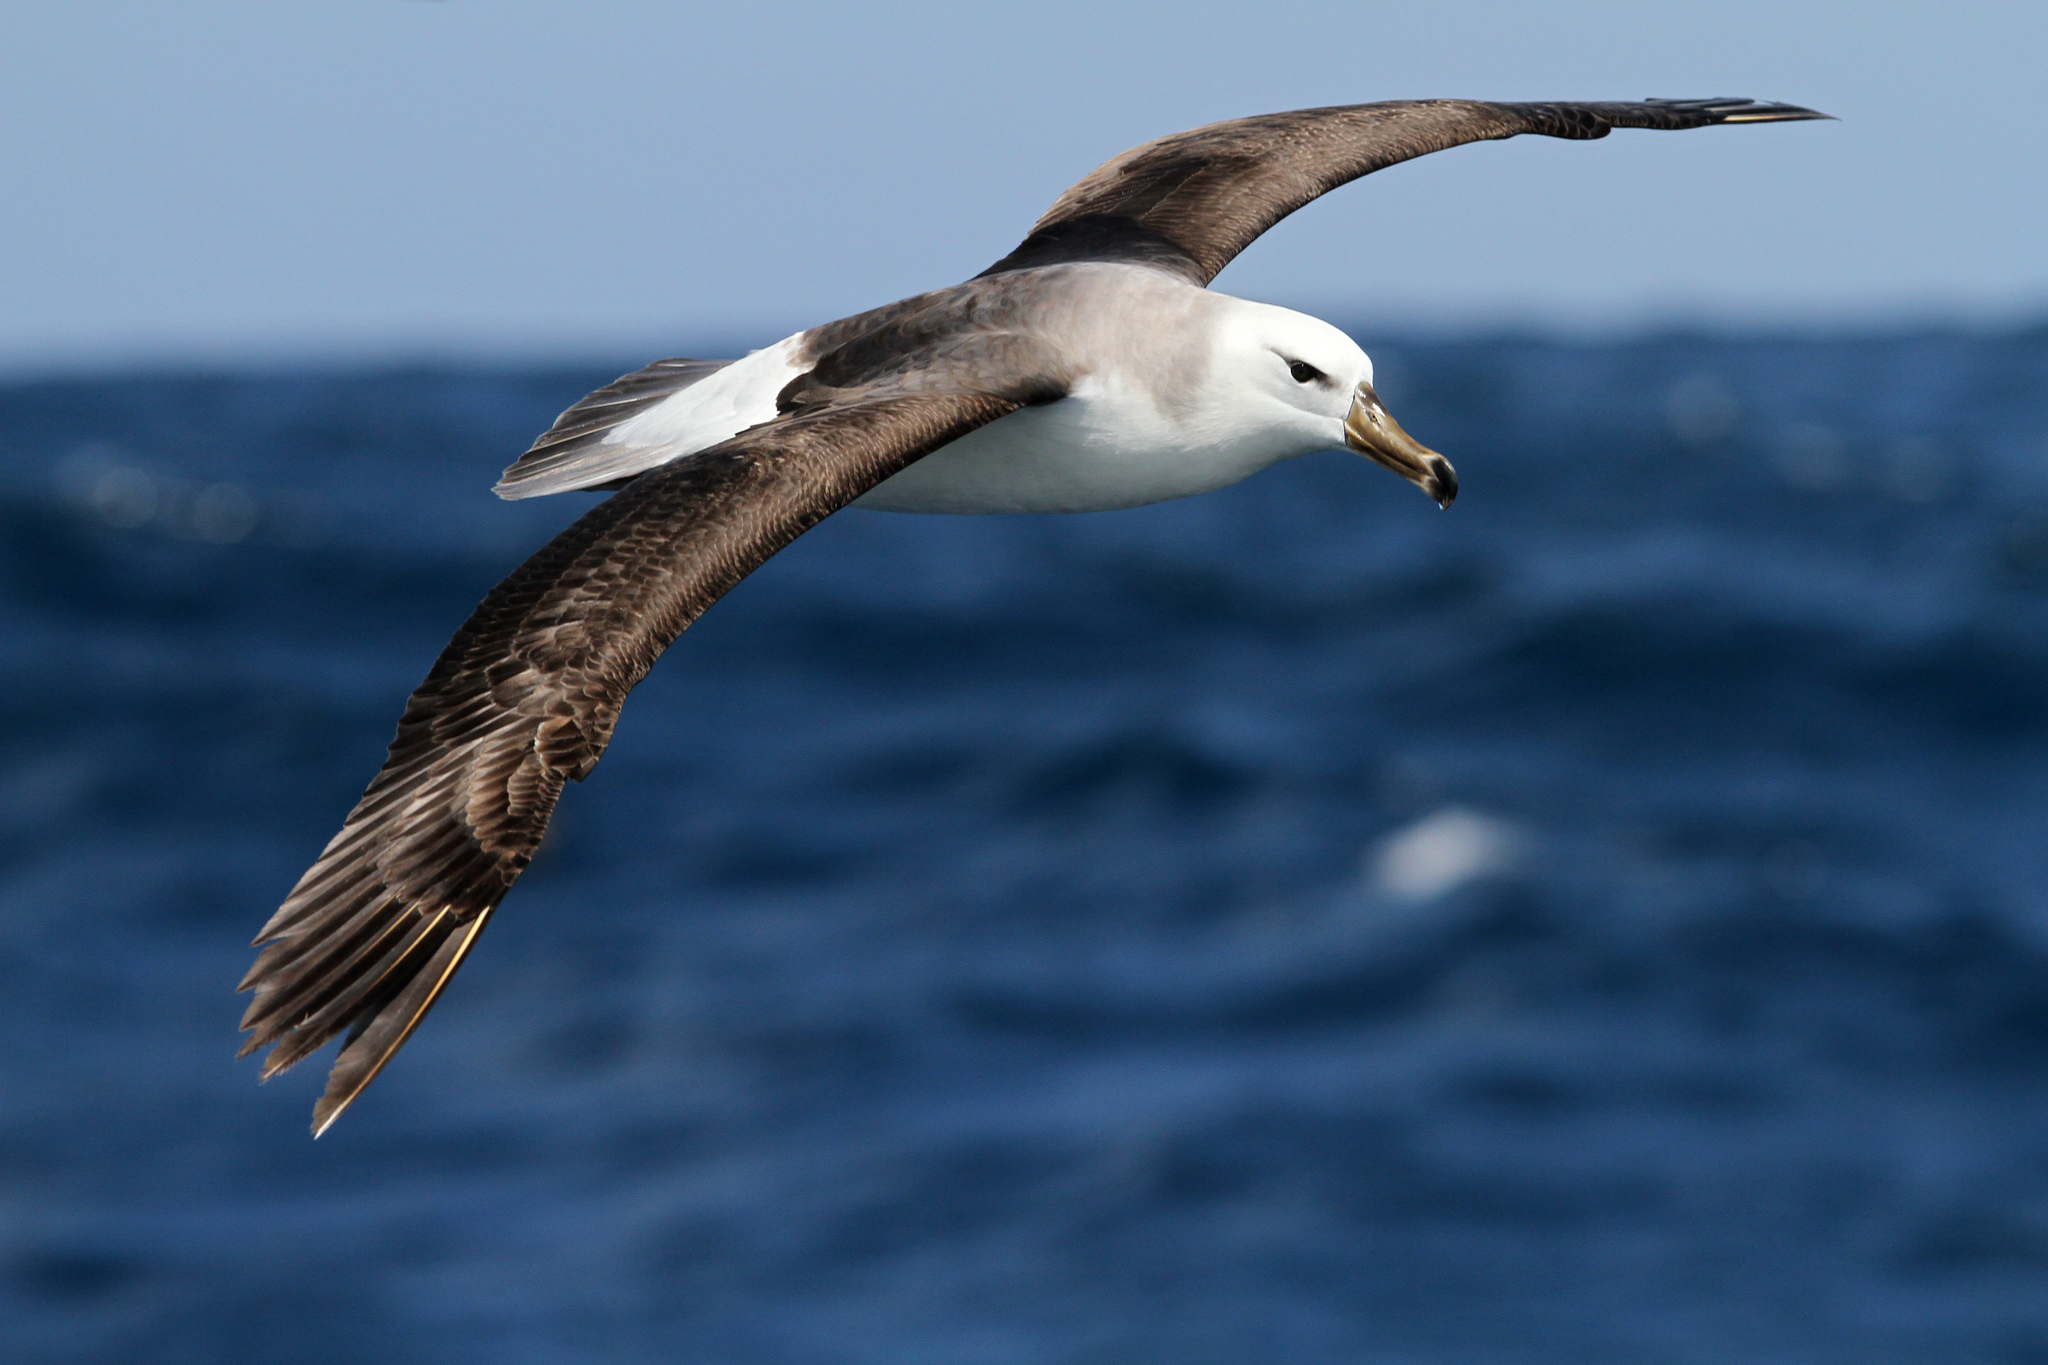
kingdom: Animalia
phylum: Chordata
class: Aves
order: Procellariiformes
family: Diomedeidae
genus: Thalassarche
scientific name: Thalassarche cauta
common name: Shy albatross
